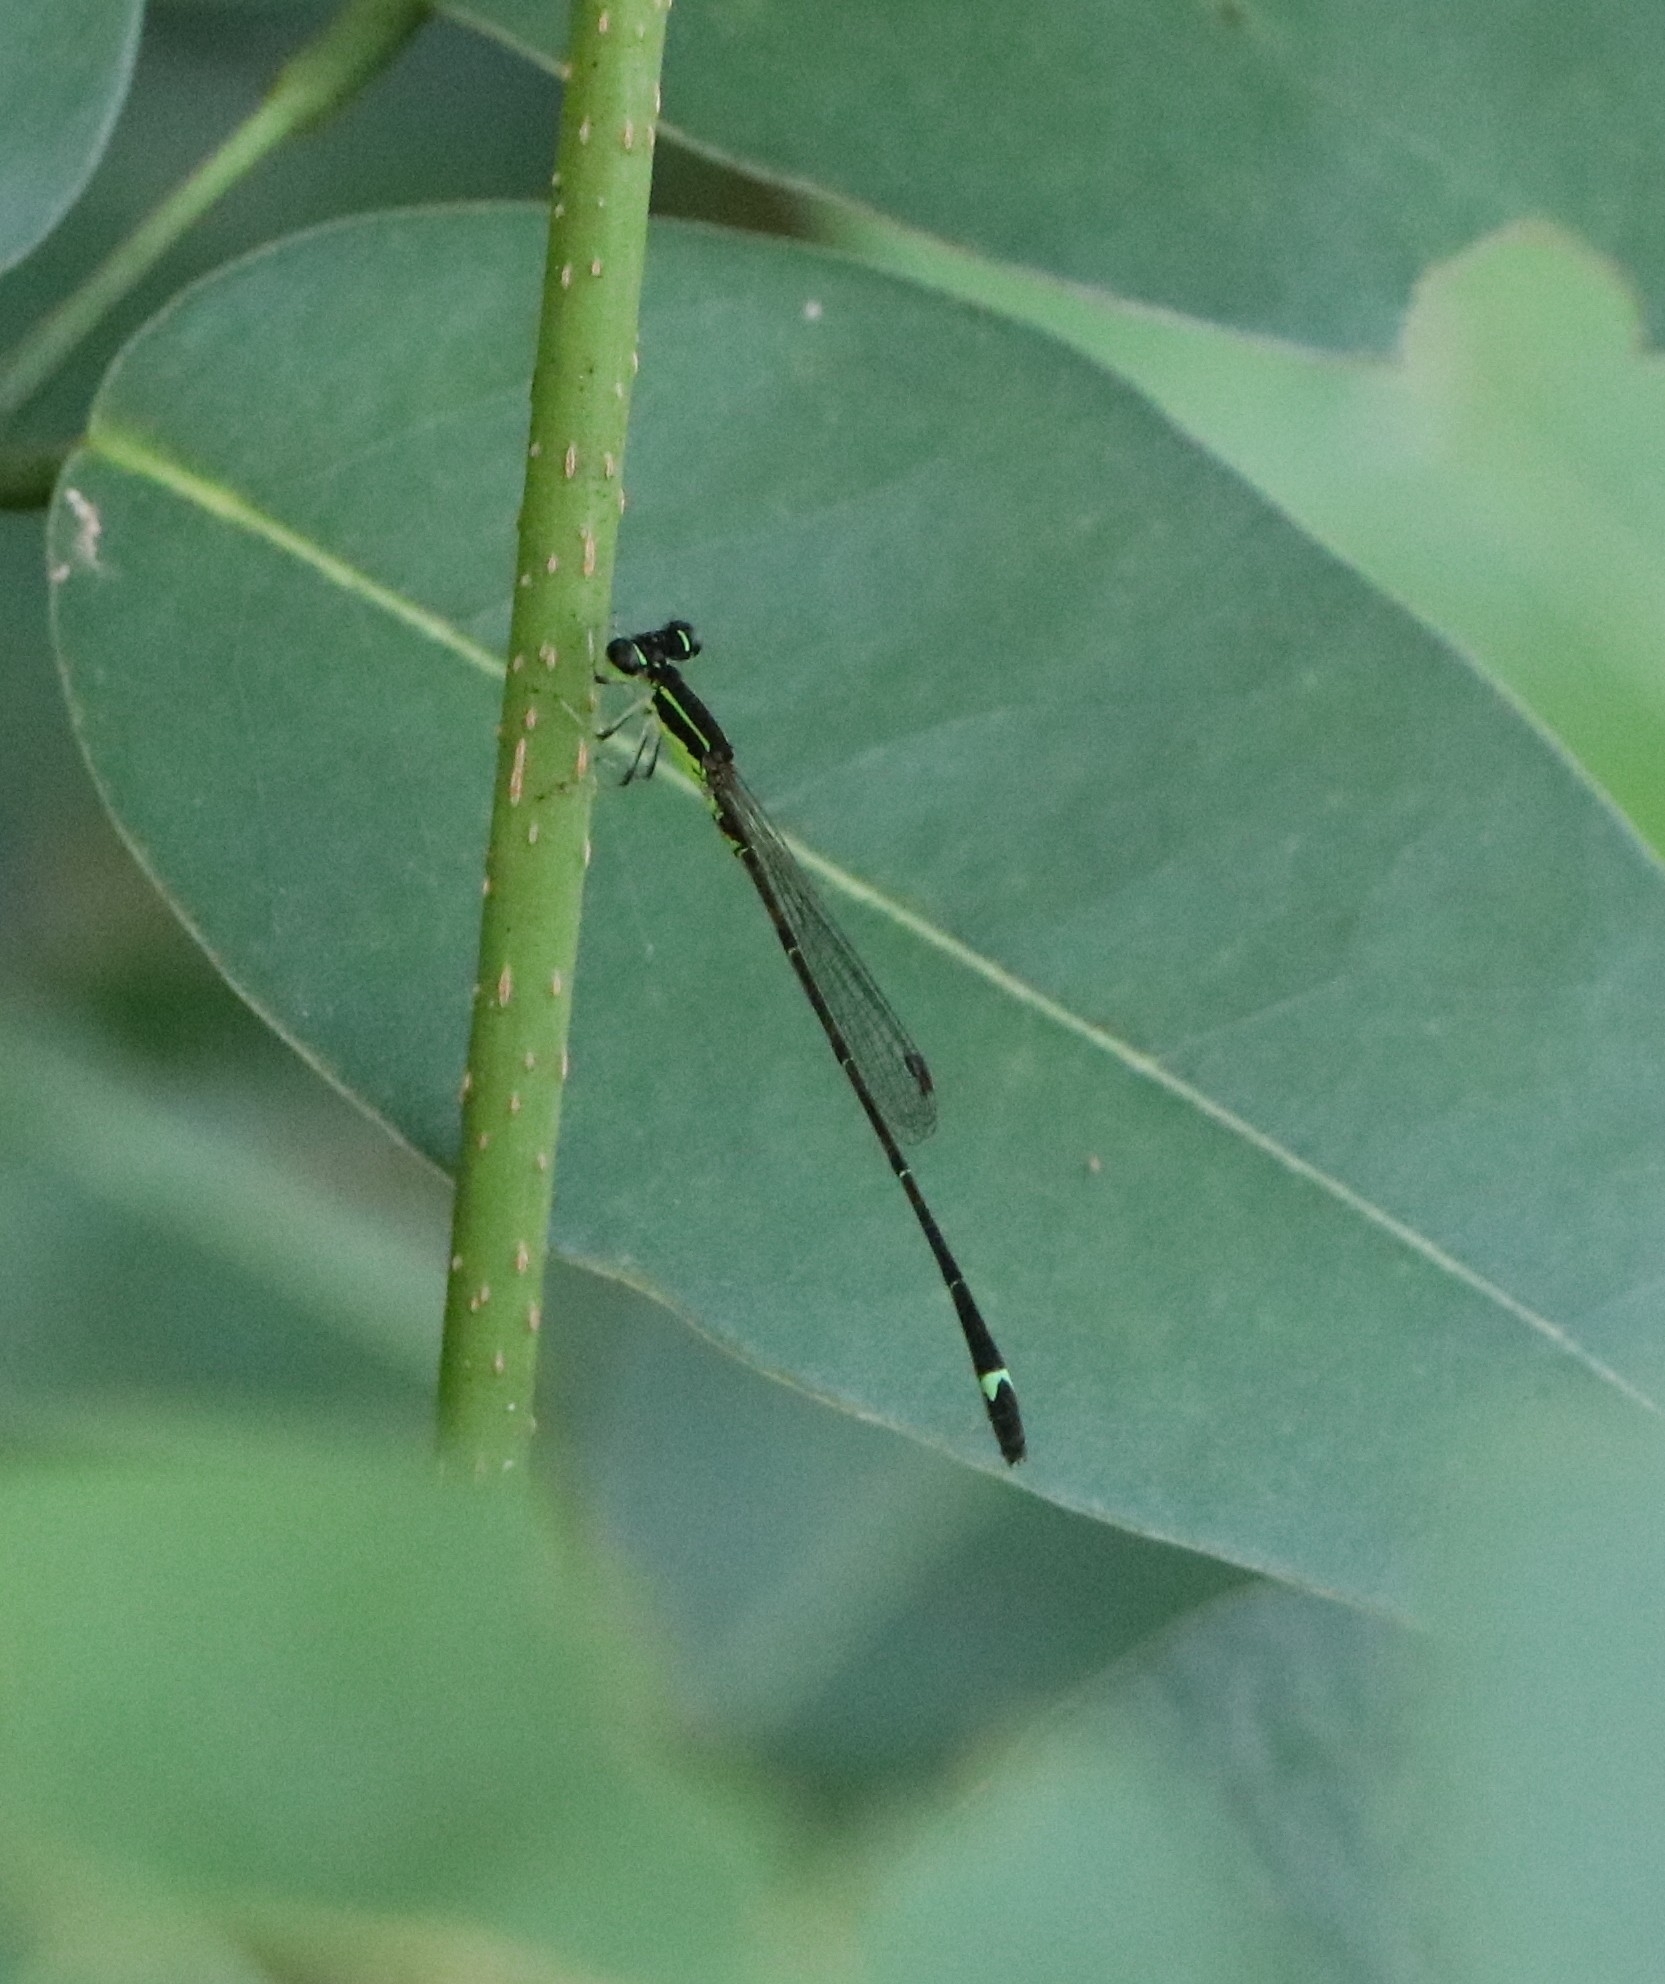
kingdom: Animalia
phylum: Arthropoda
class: Insecta
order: Odonata
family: Coenagrionidae
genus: Mortonagrion
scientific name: Mortonagrion varralli
